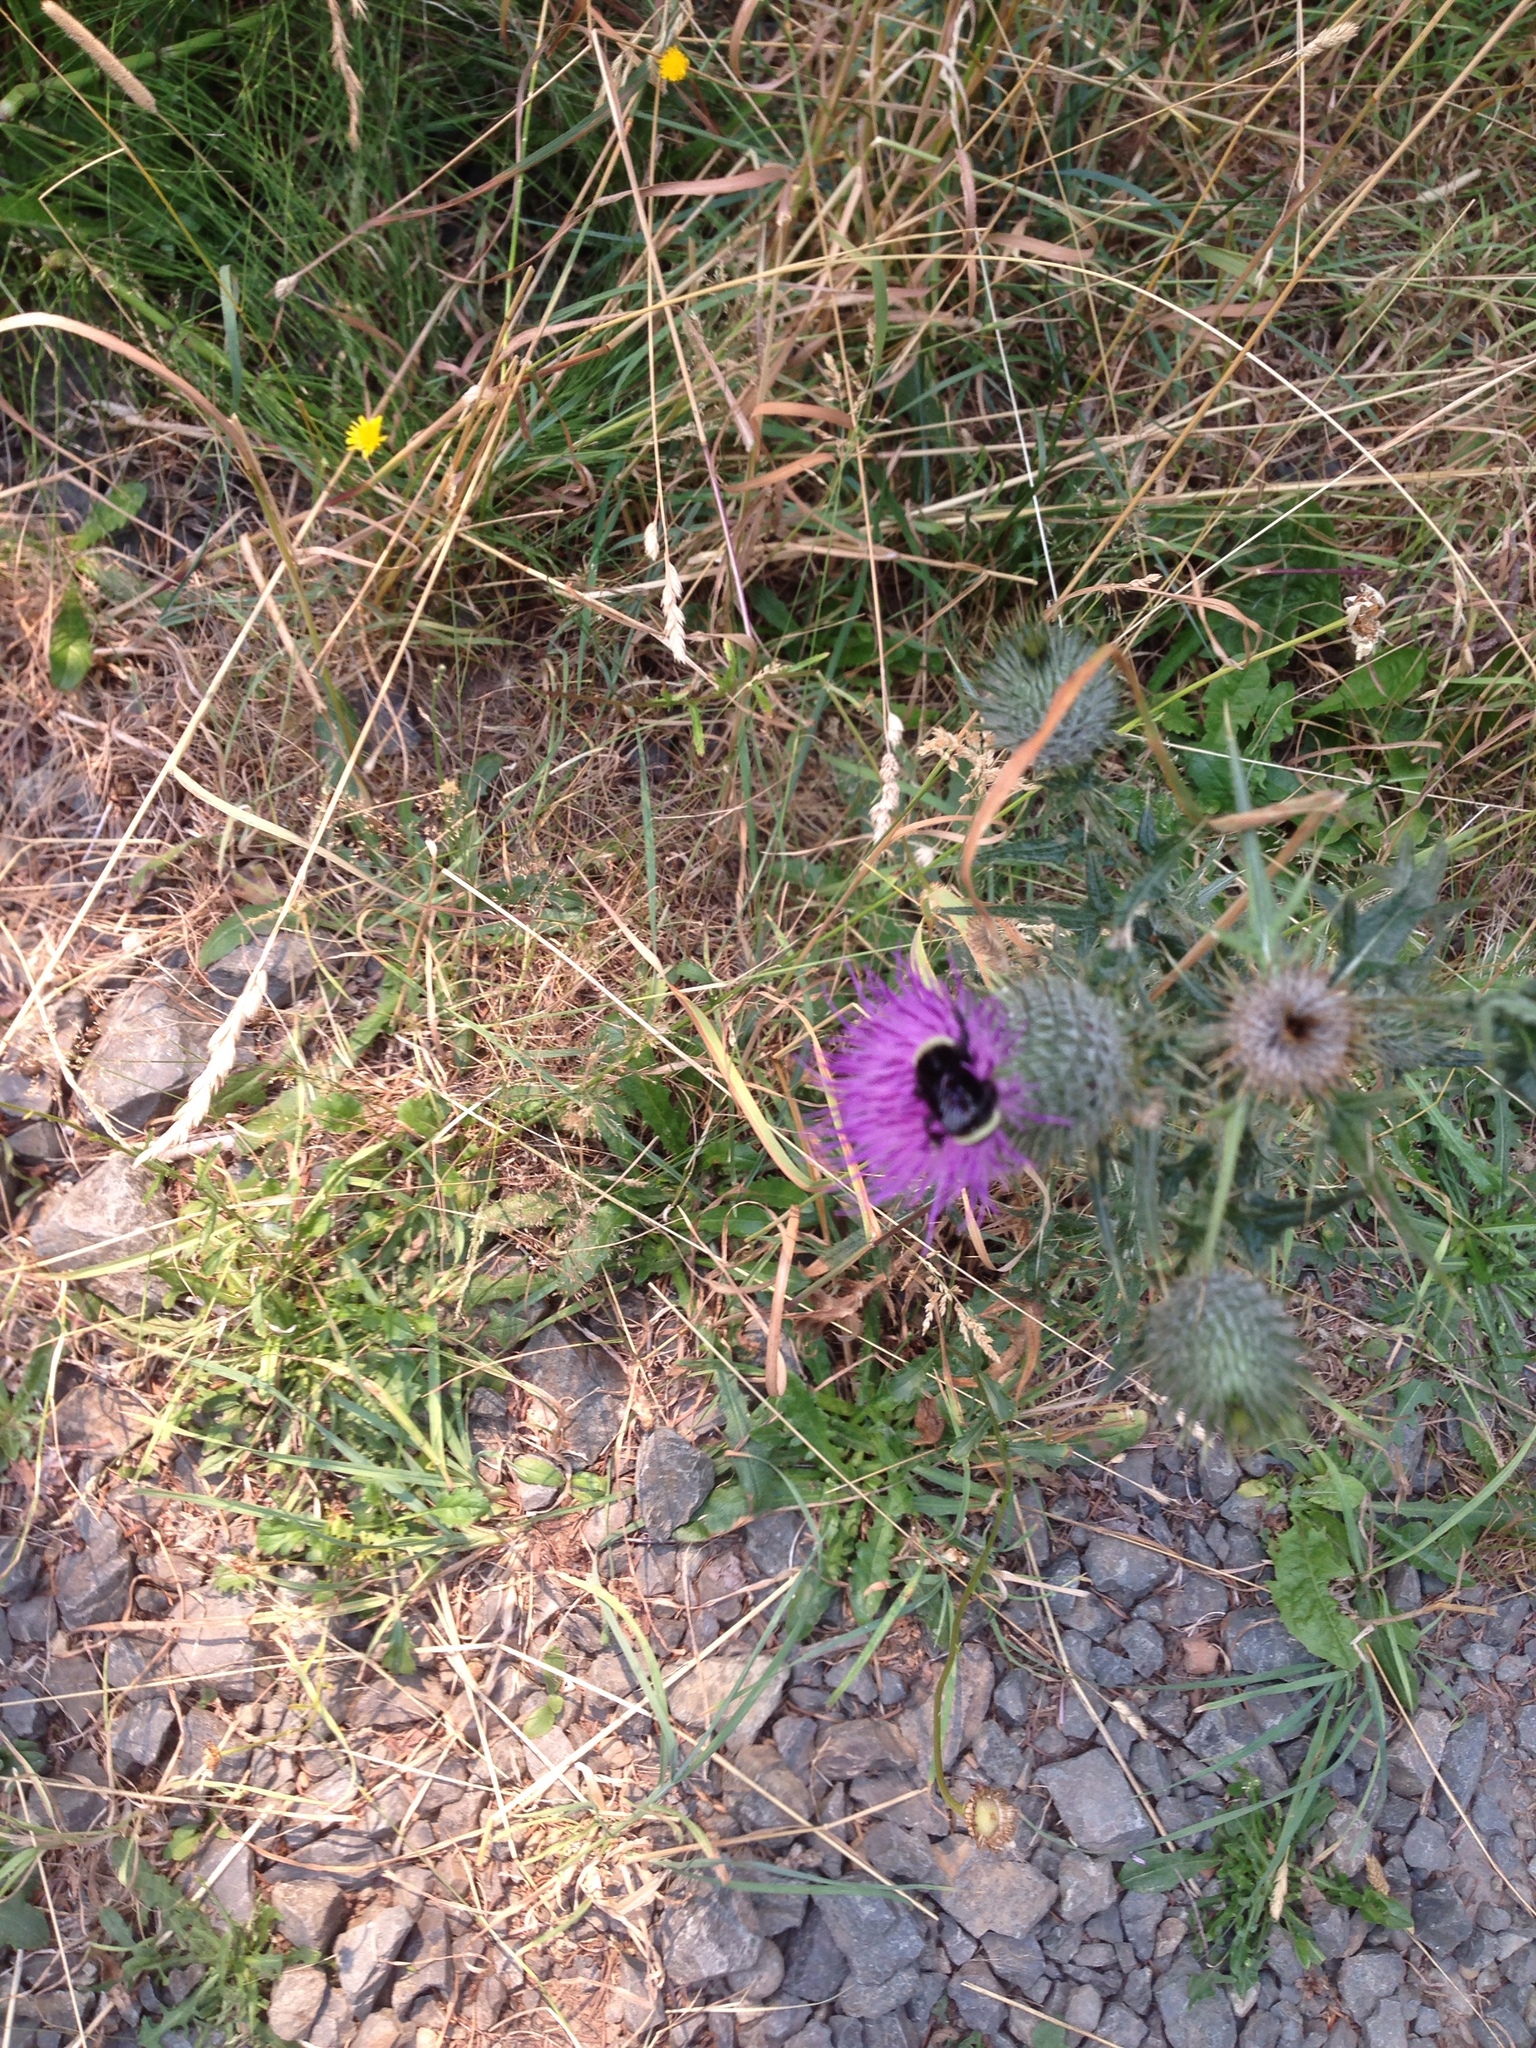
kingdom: Animalia
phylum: Arthropoda
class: Insecta
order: Hymenoptera
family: Apidae
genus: Bombus
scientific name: Bombus vosnesenskii
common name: Vosnesensky bumble bee
